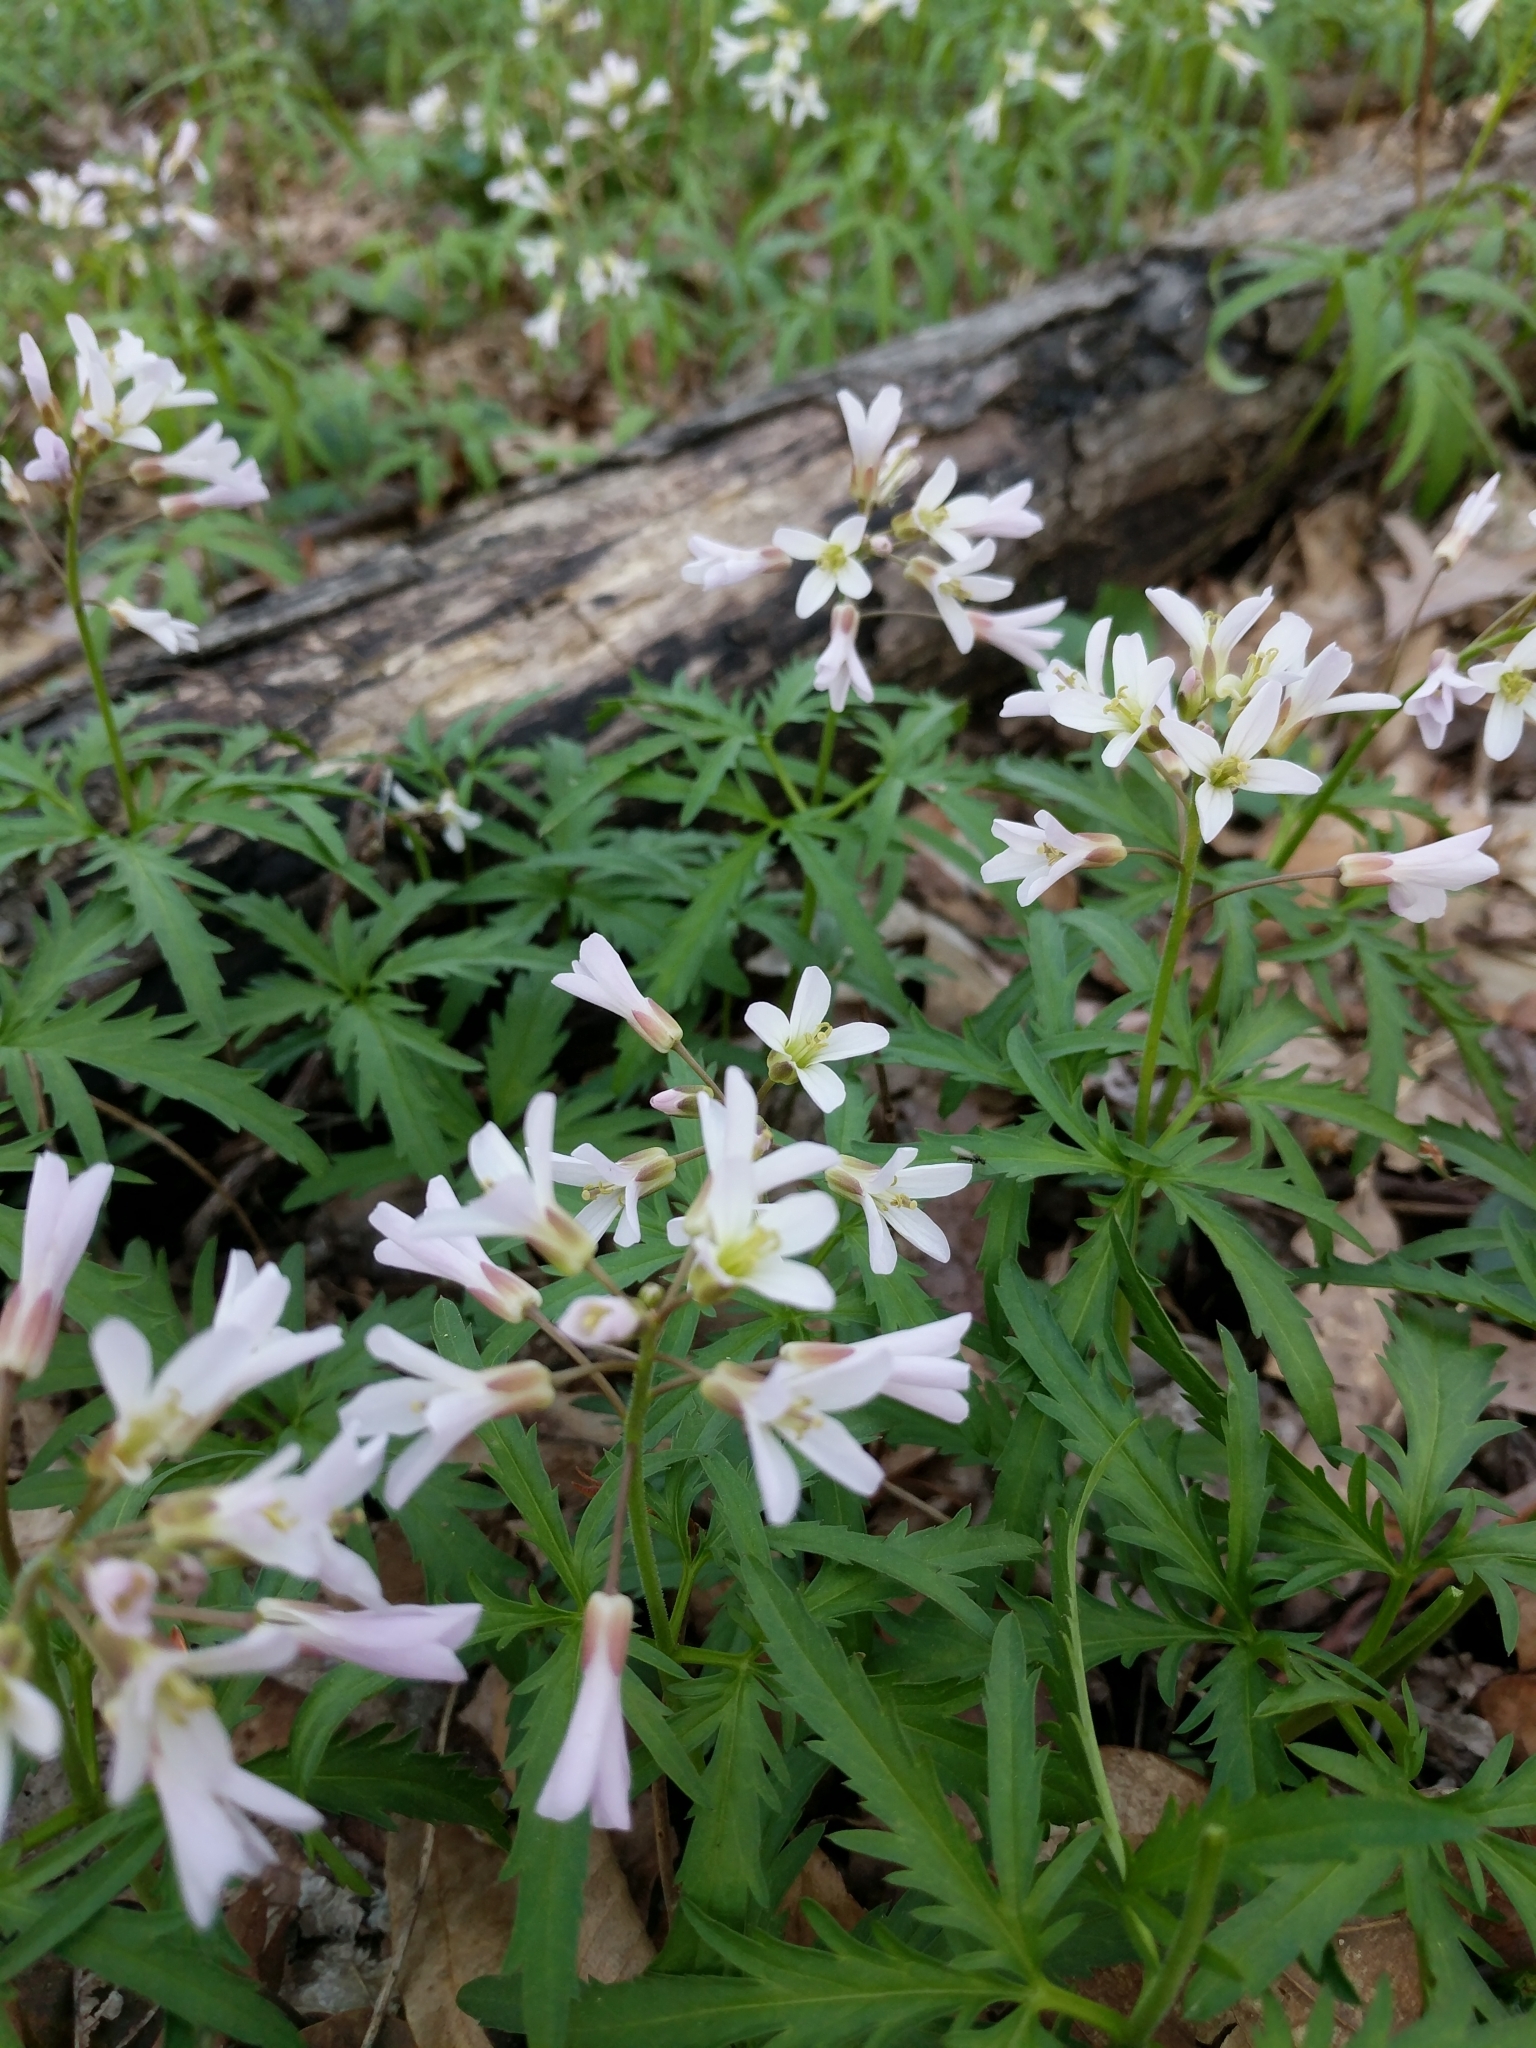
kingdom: Plantae
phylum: Tracheophyta
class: Magnoliopsida
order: Brassicales
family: Brassicaceae
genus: Cardamine
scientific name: Cardamine concatenata
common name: Cut-leaf toothcup
